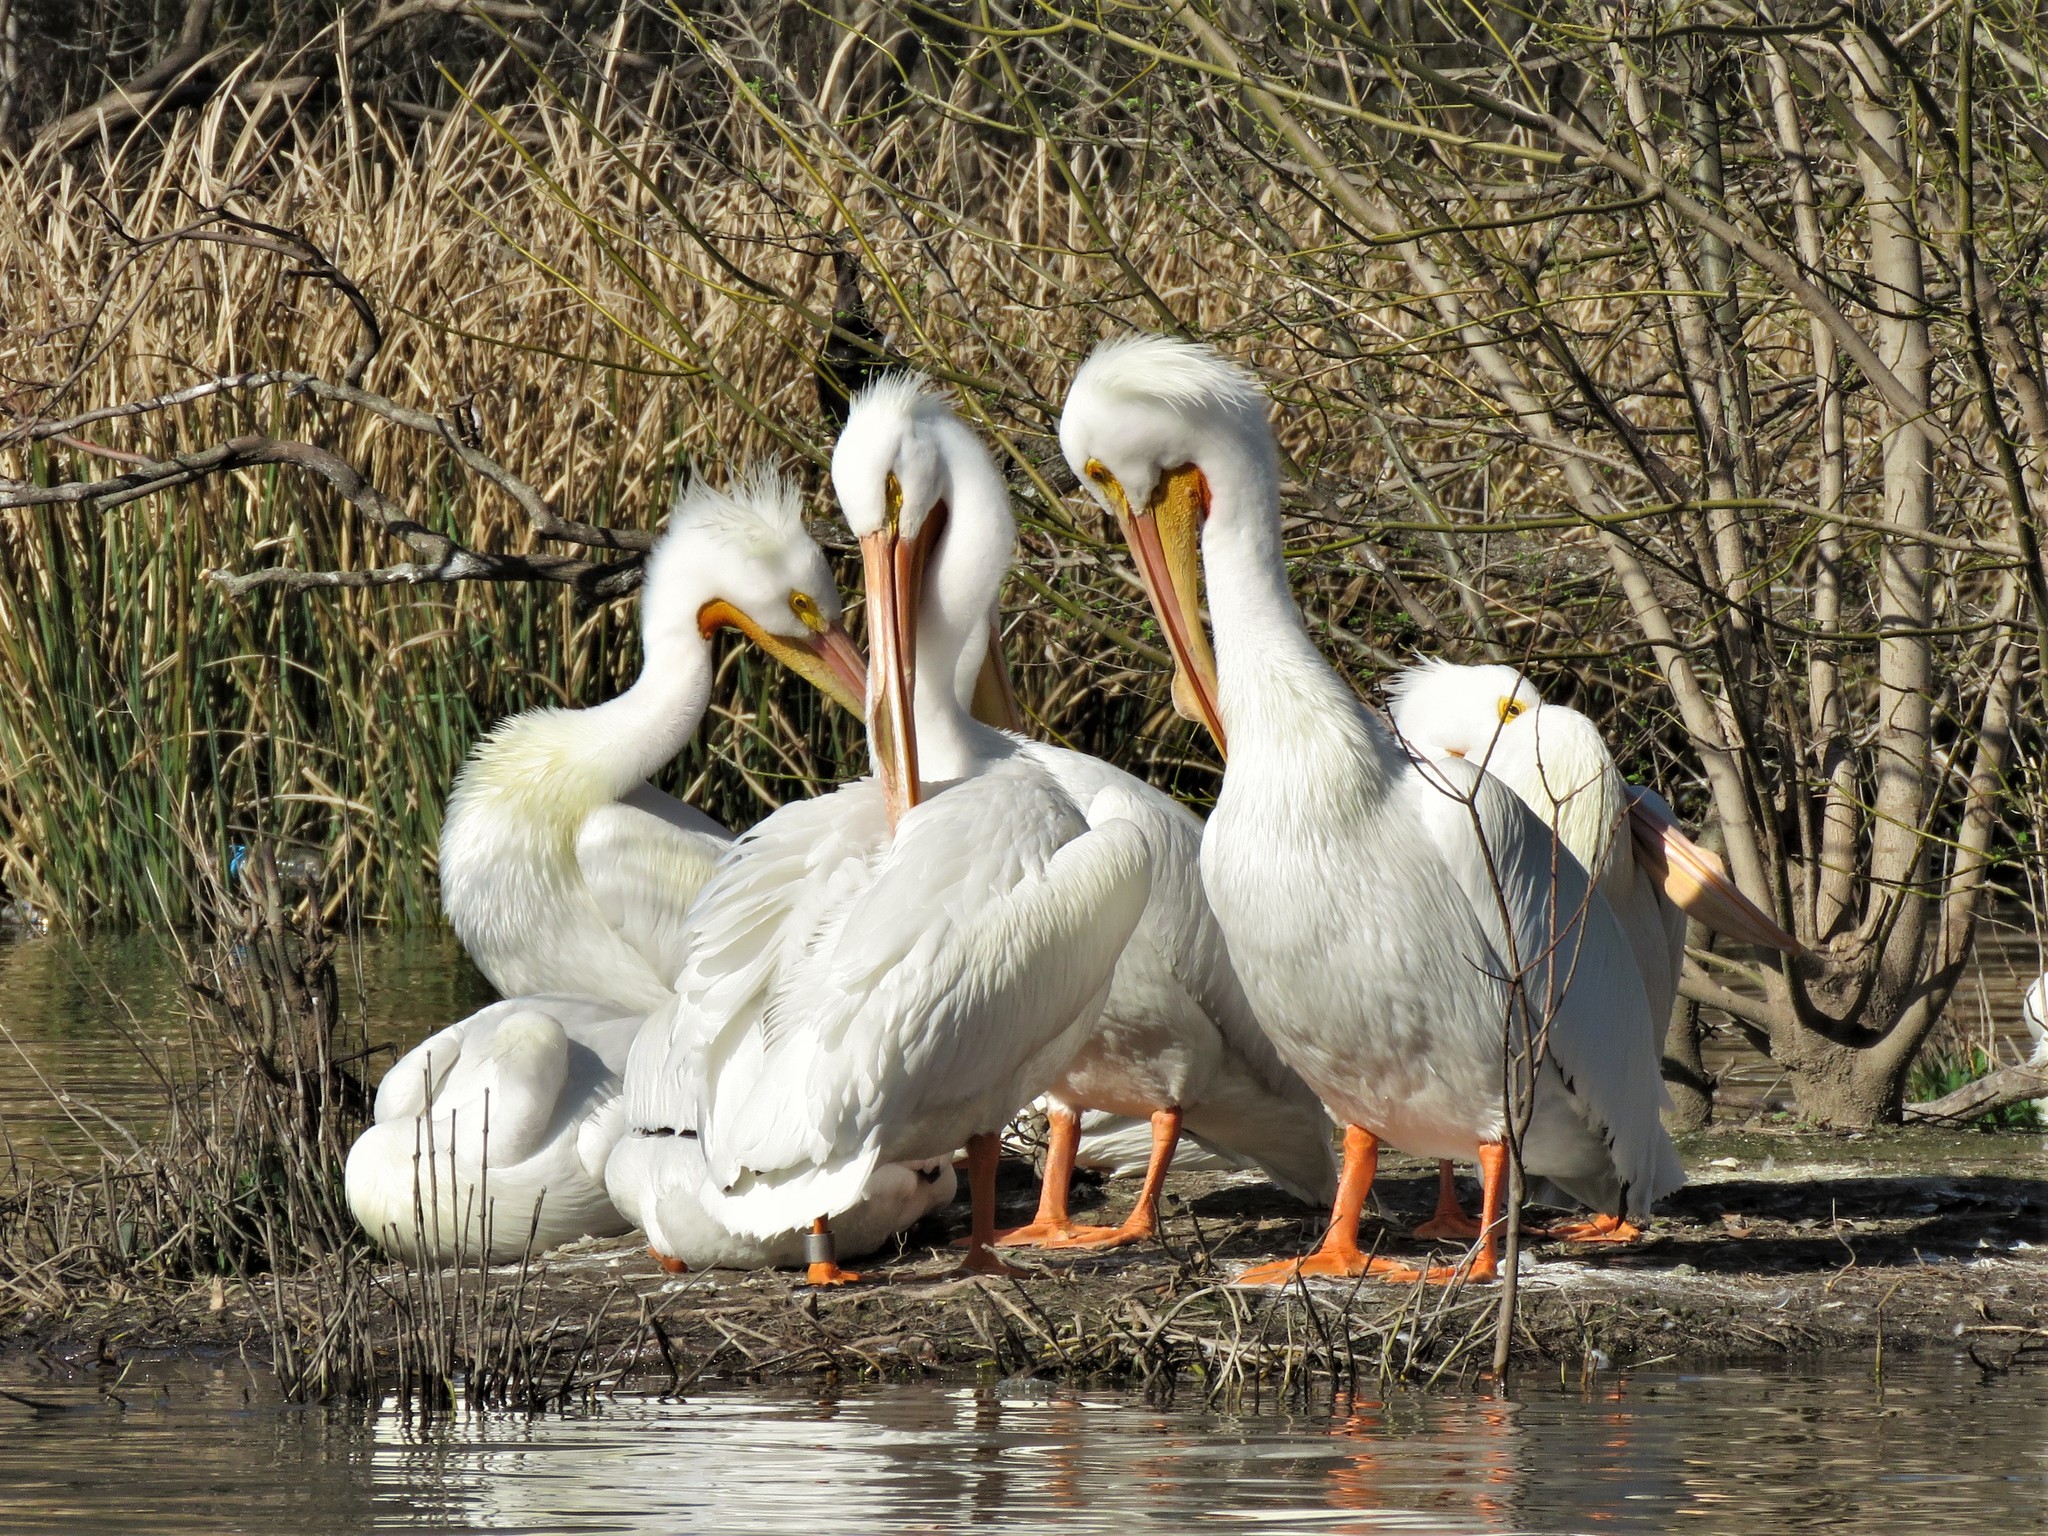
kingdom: Animalia
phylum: Chordata
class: Aves
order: Pelecaniformes
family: Pelecanidae
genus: Pelecanus
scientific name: Pelecanus erythrorhynchos
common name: American white pelican
